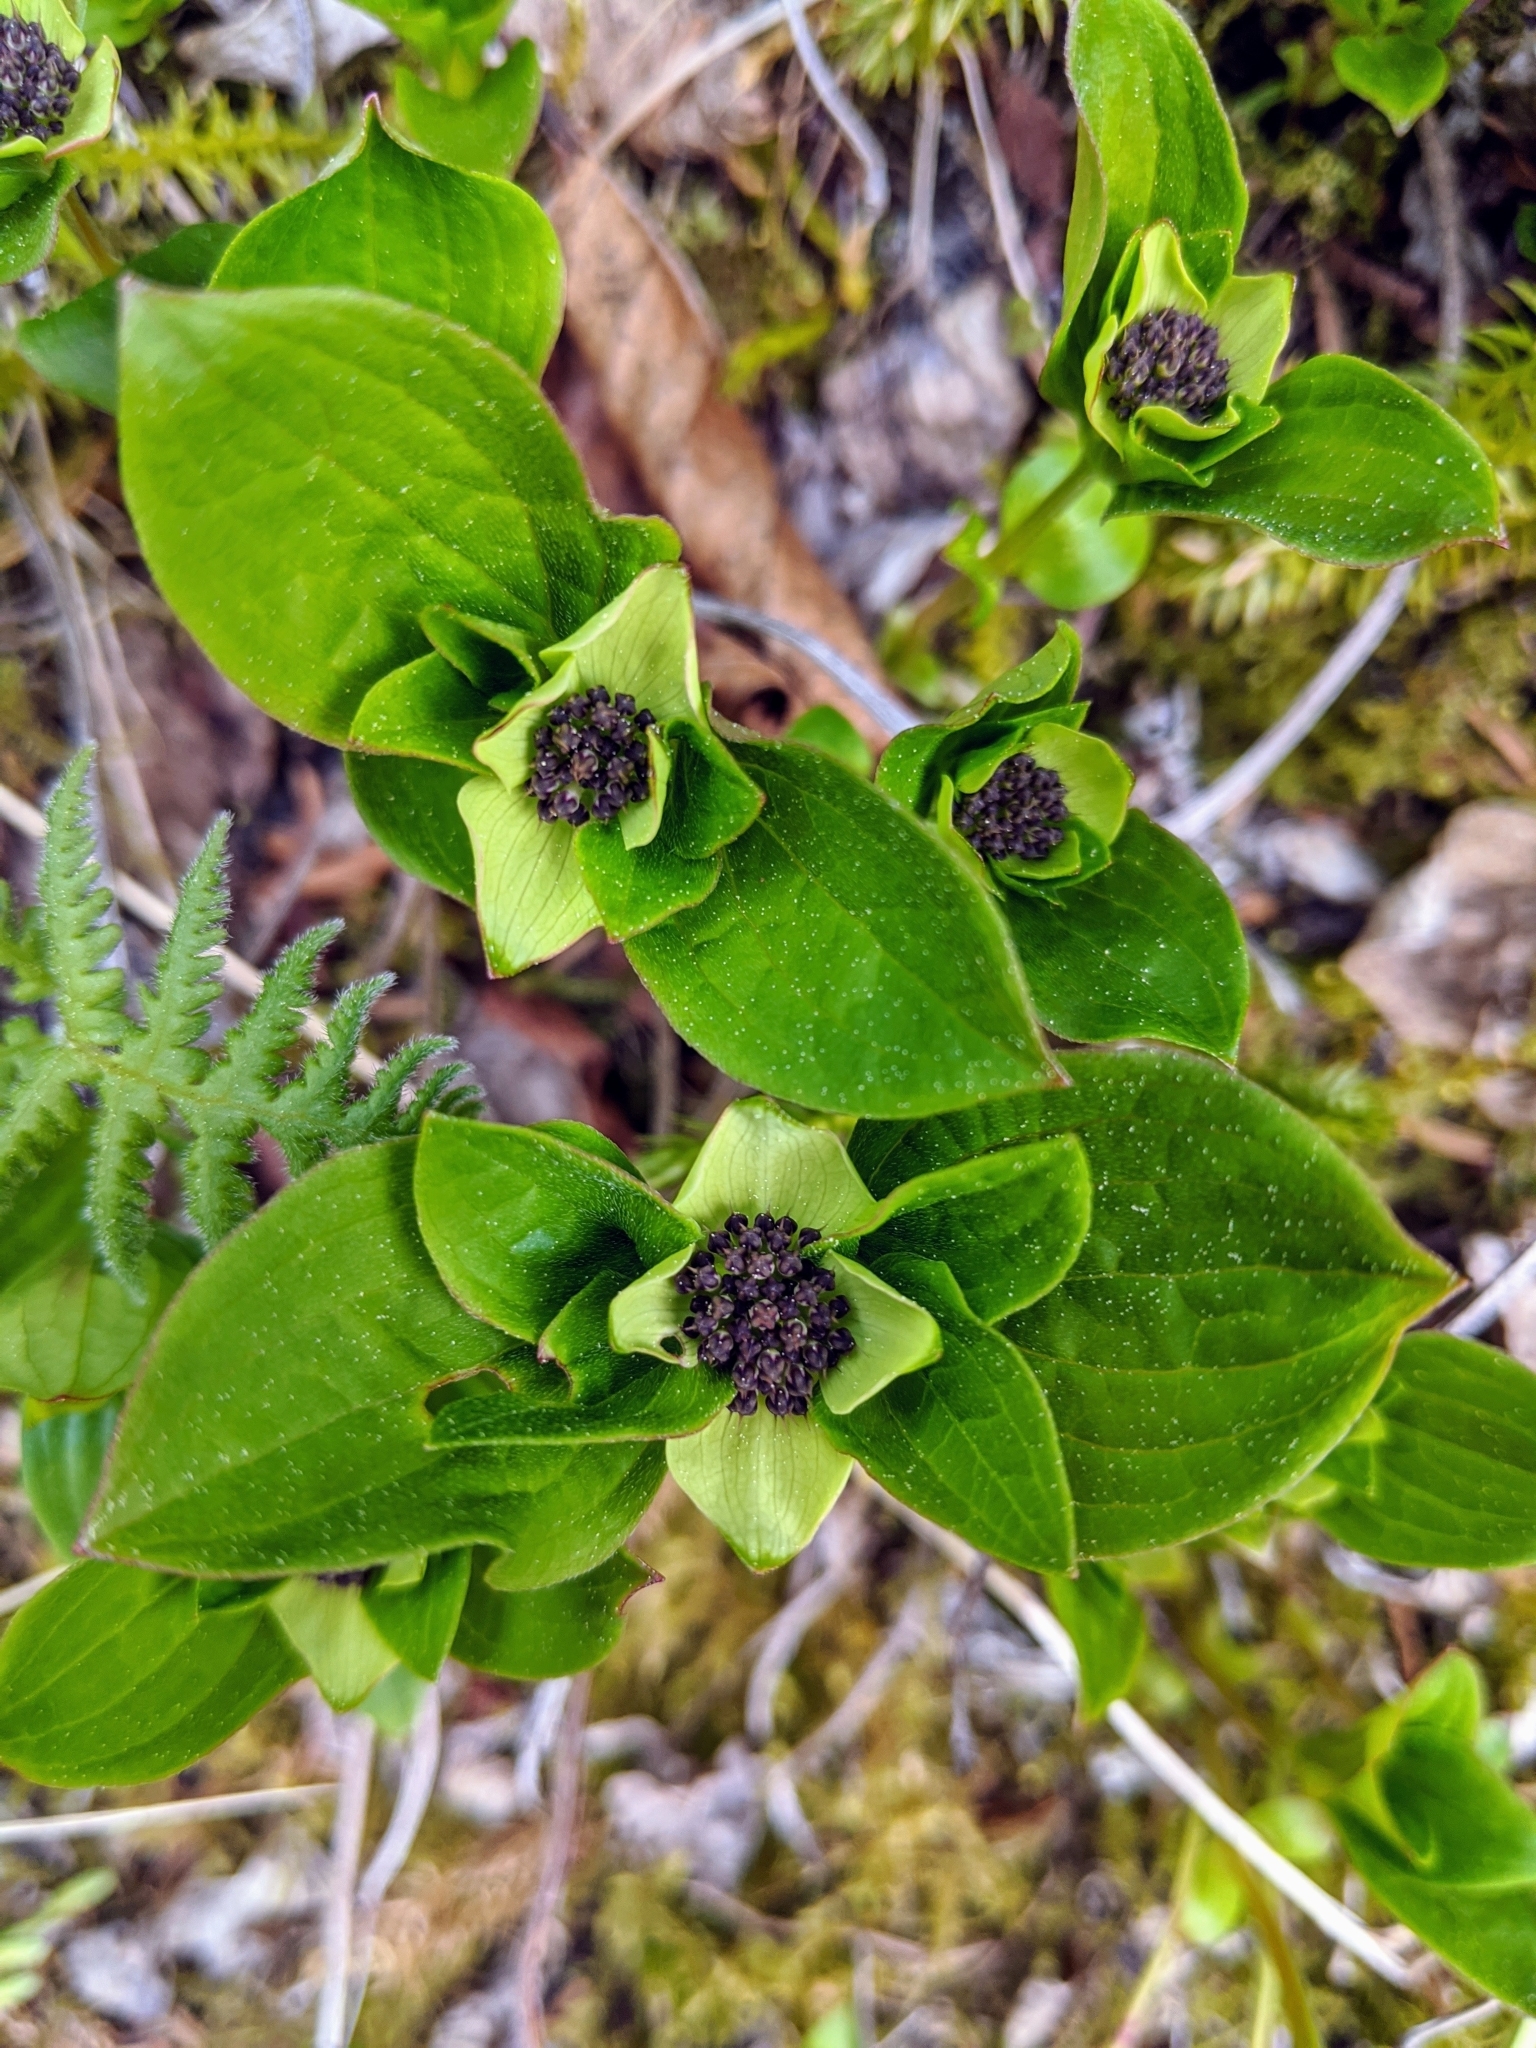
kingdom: Plantae
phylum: Tracheophyta
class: Magnoliopsida
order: Cornales
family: Cornaceae
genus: Cornus
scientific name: Cornus suecica
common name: Dwarf cornel
